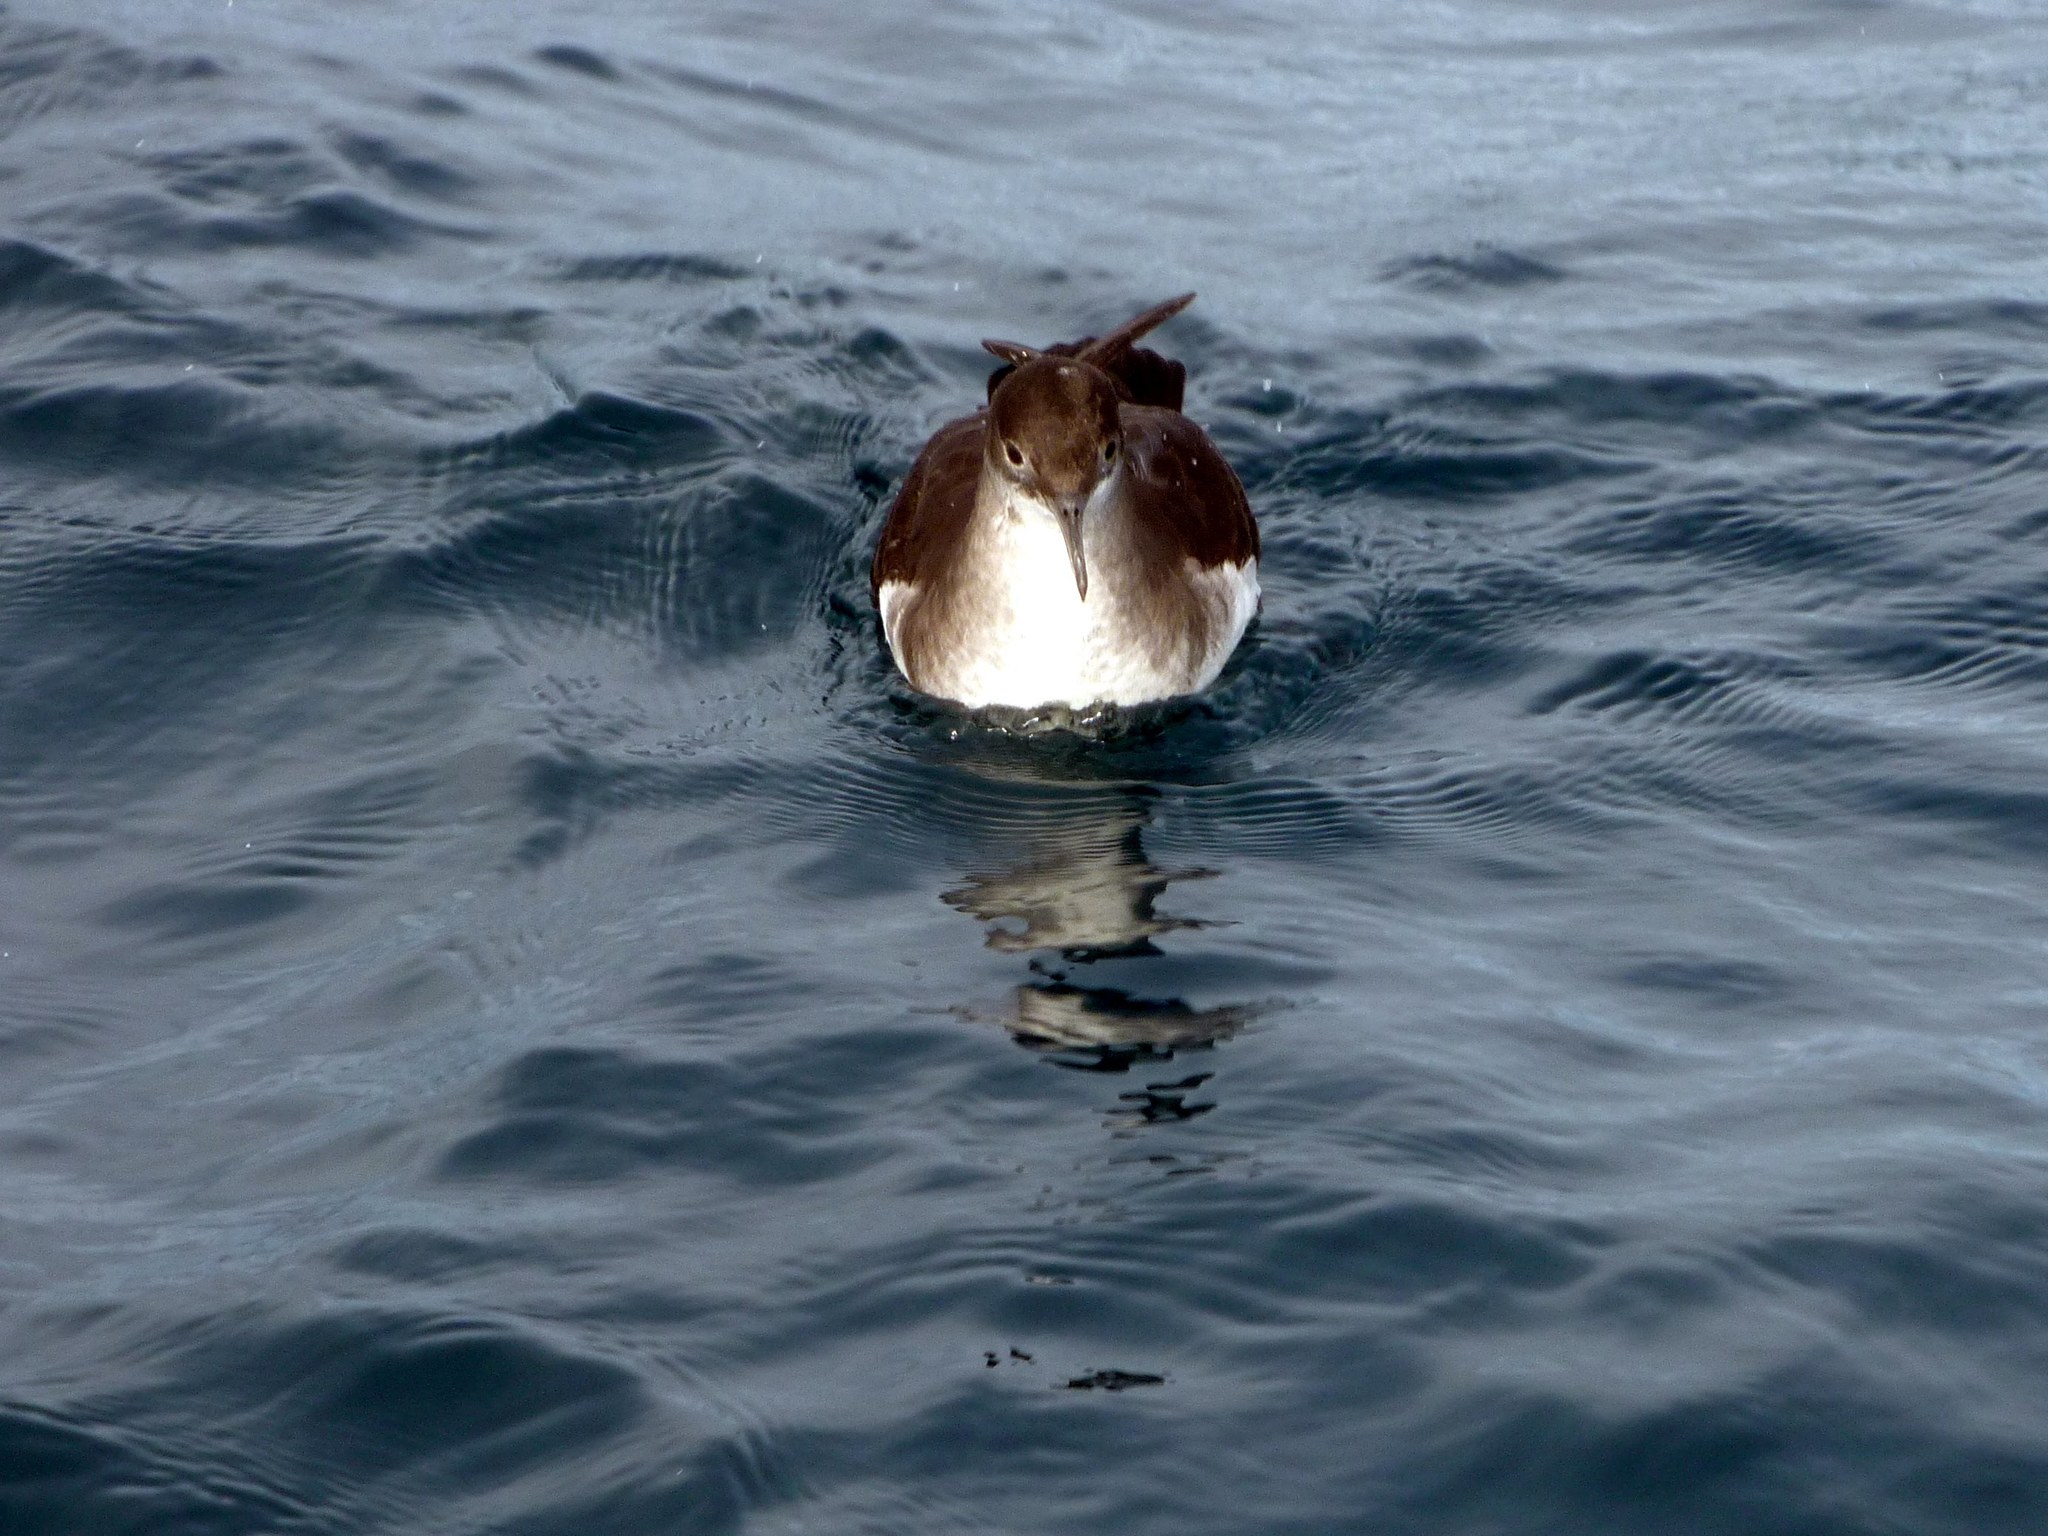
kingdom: Animalia
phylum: Chordata
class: Aves
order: Procellariiformes
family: Procellariidae
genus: Puffinus
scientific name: Puffinus gavia
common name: Fluttering shearwater
